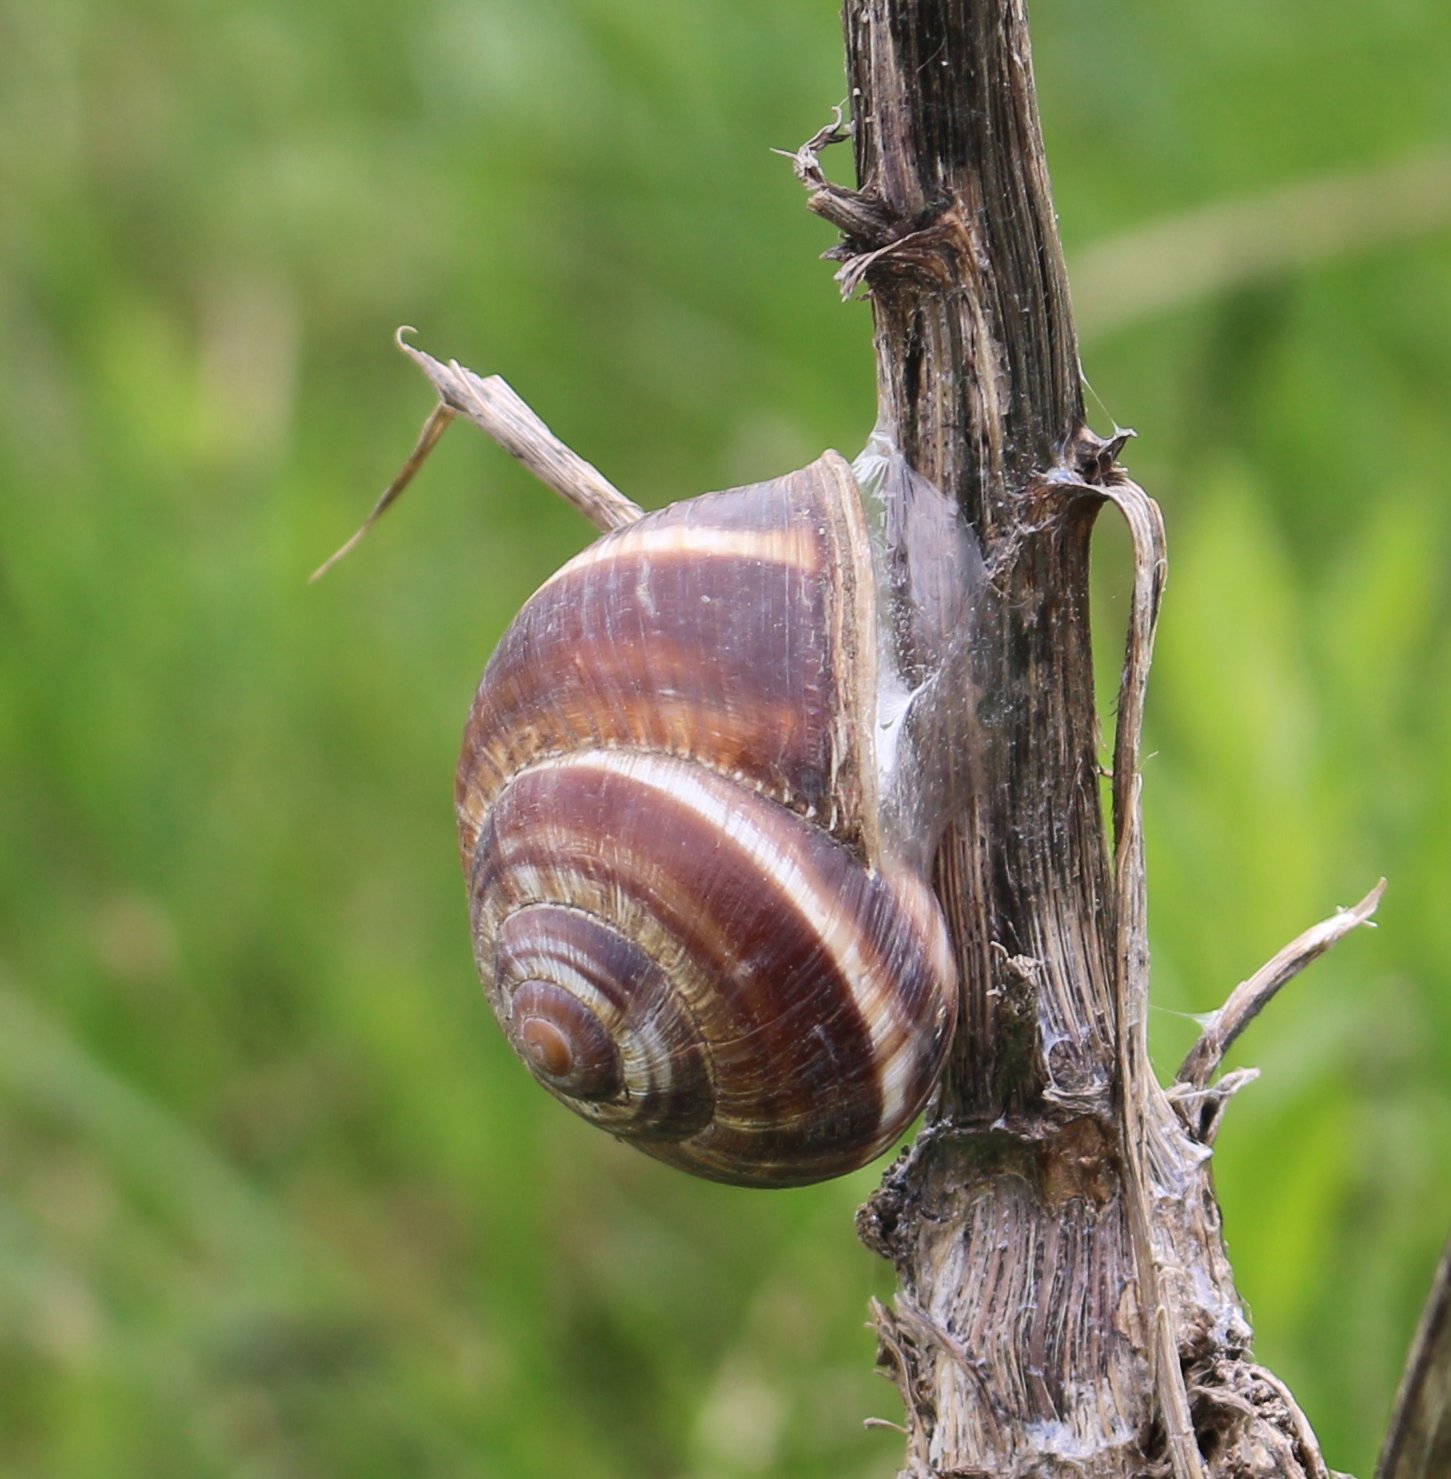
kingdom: Animalia
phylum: Mollusca
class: Gastropoda
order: Stylommatophora
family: Helicidae
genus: Helix
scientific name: Helix lucorum
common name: Turkish snail
